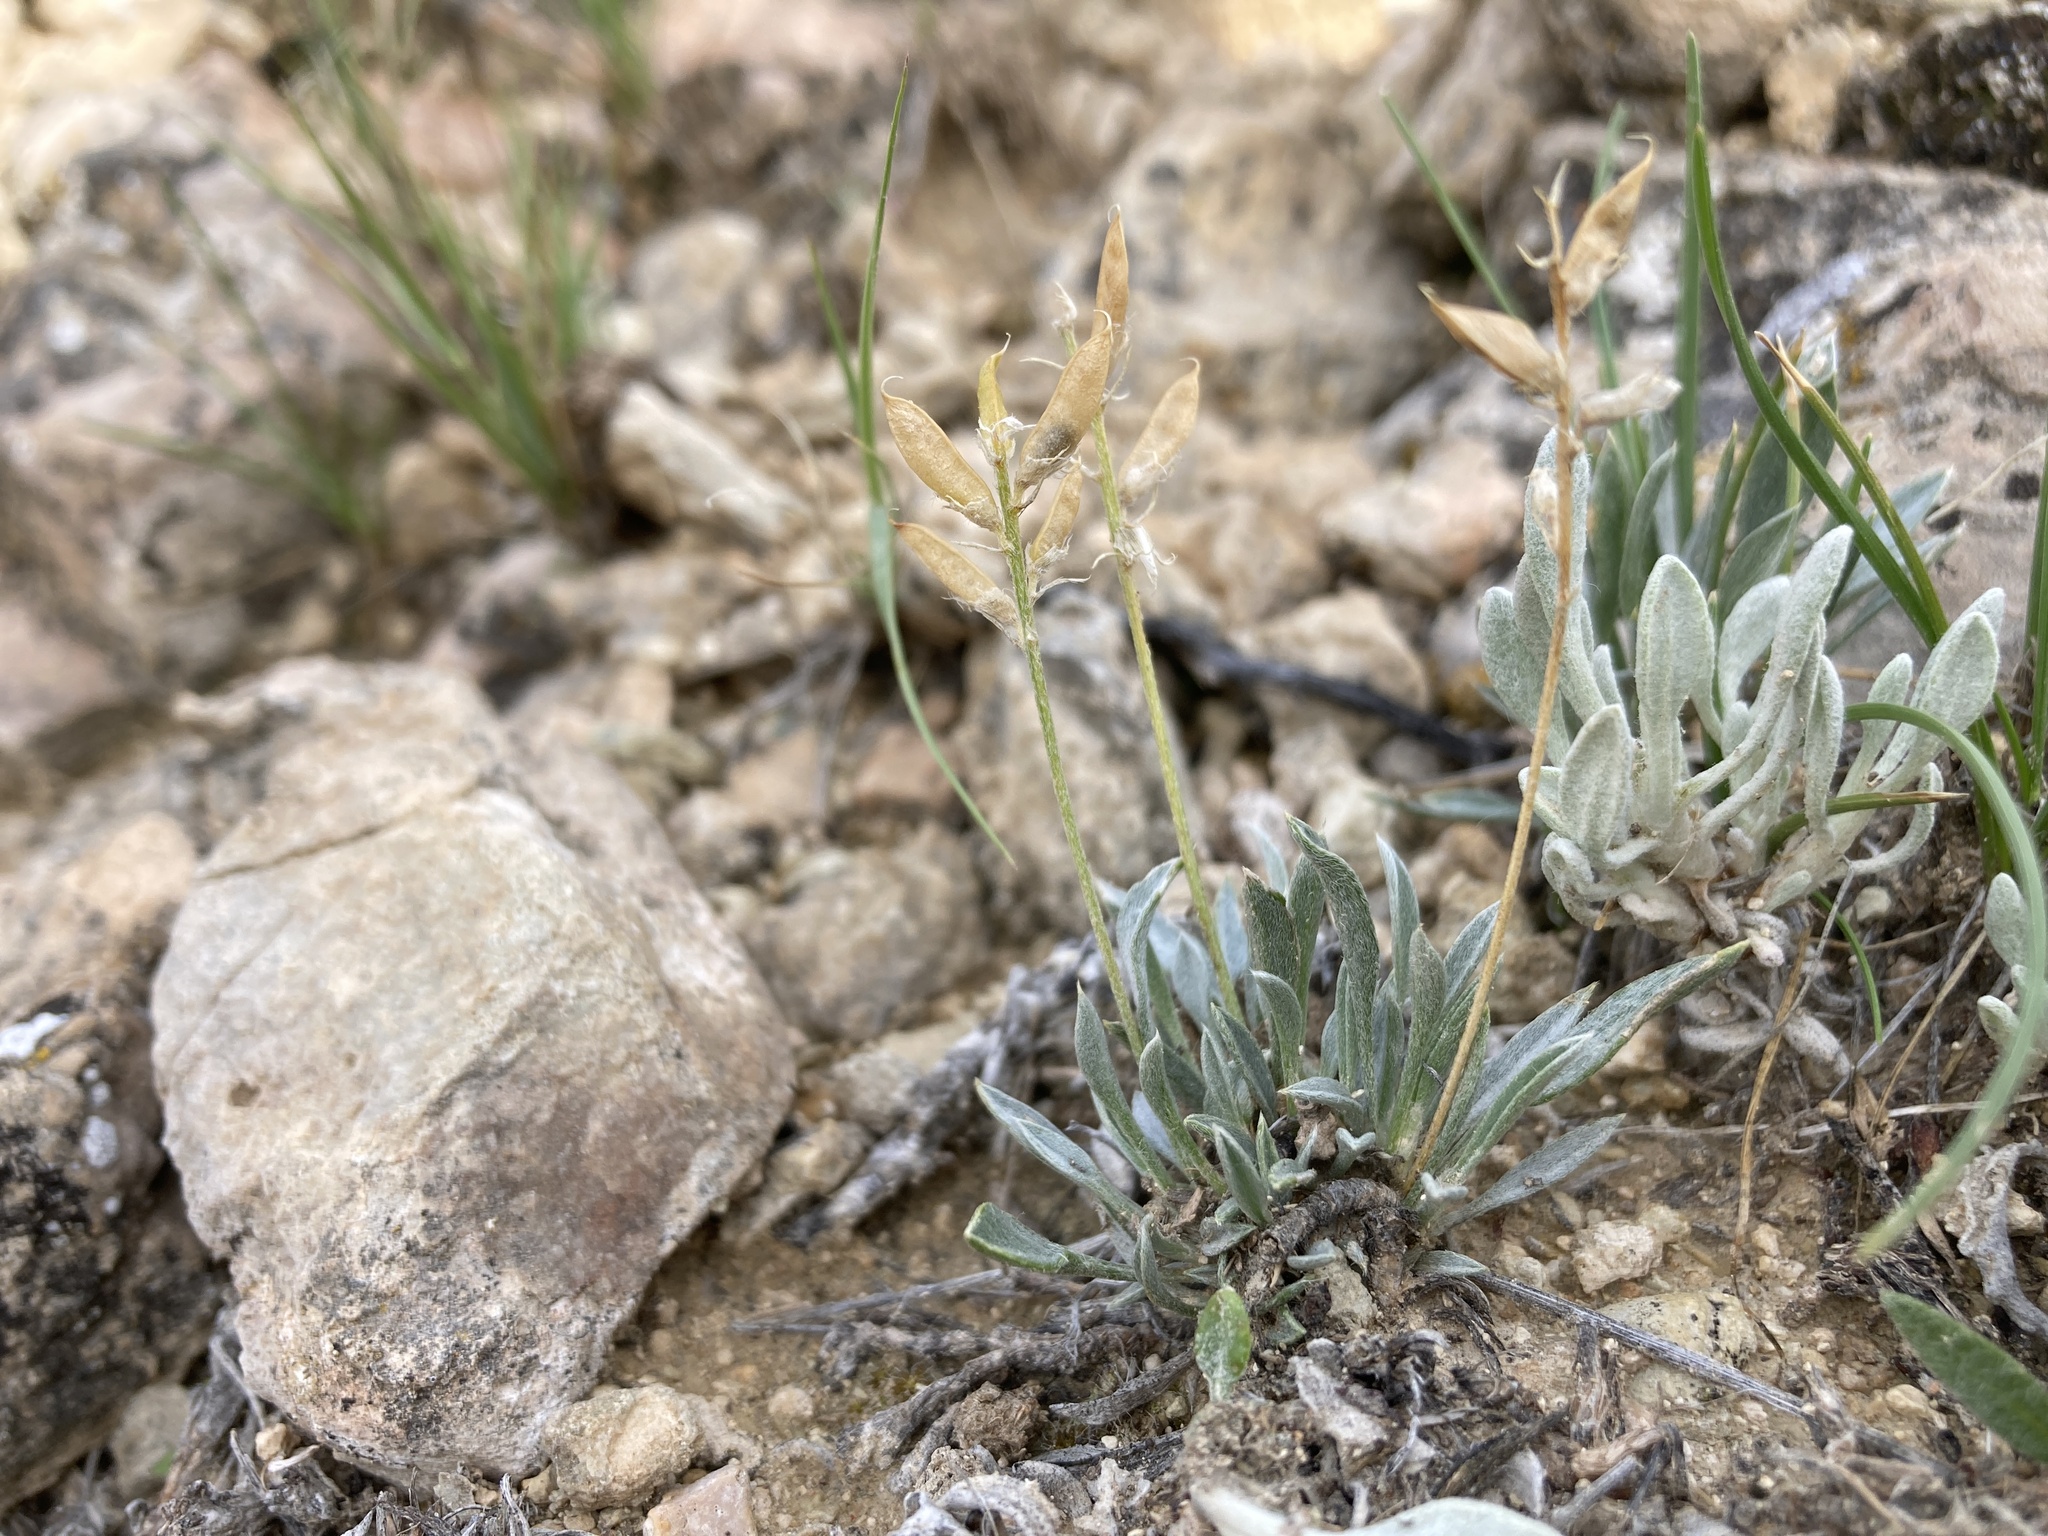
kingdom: Plantae
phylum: Tracheophyta
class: Magnoliopsida
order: Fabales
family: Fabaceae
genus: Astragalus
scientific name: Astragalus spatulatus
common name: Draba milk-vetch
